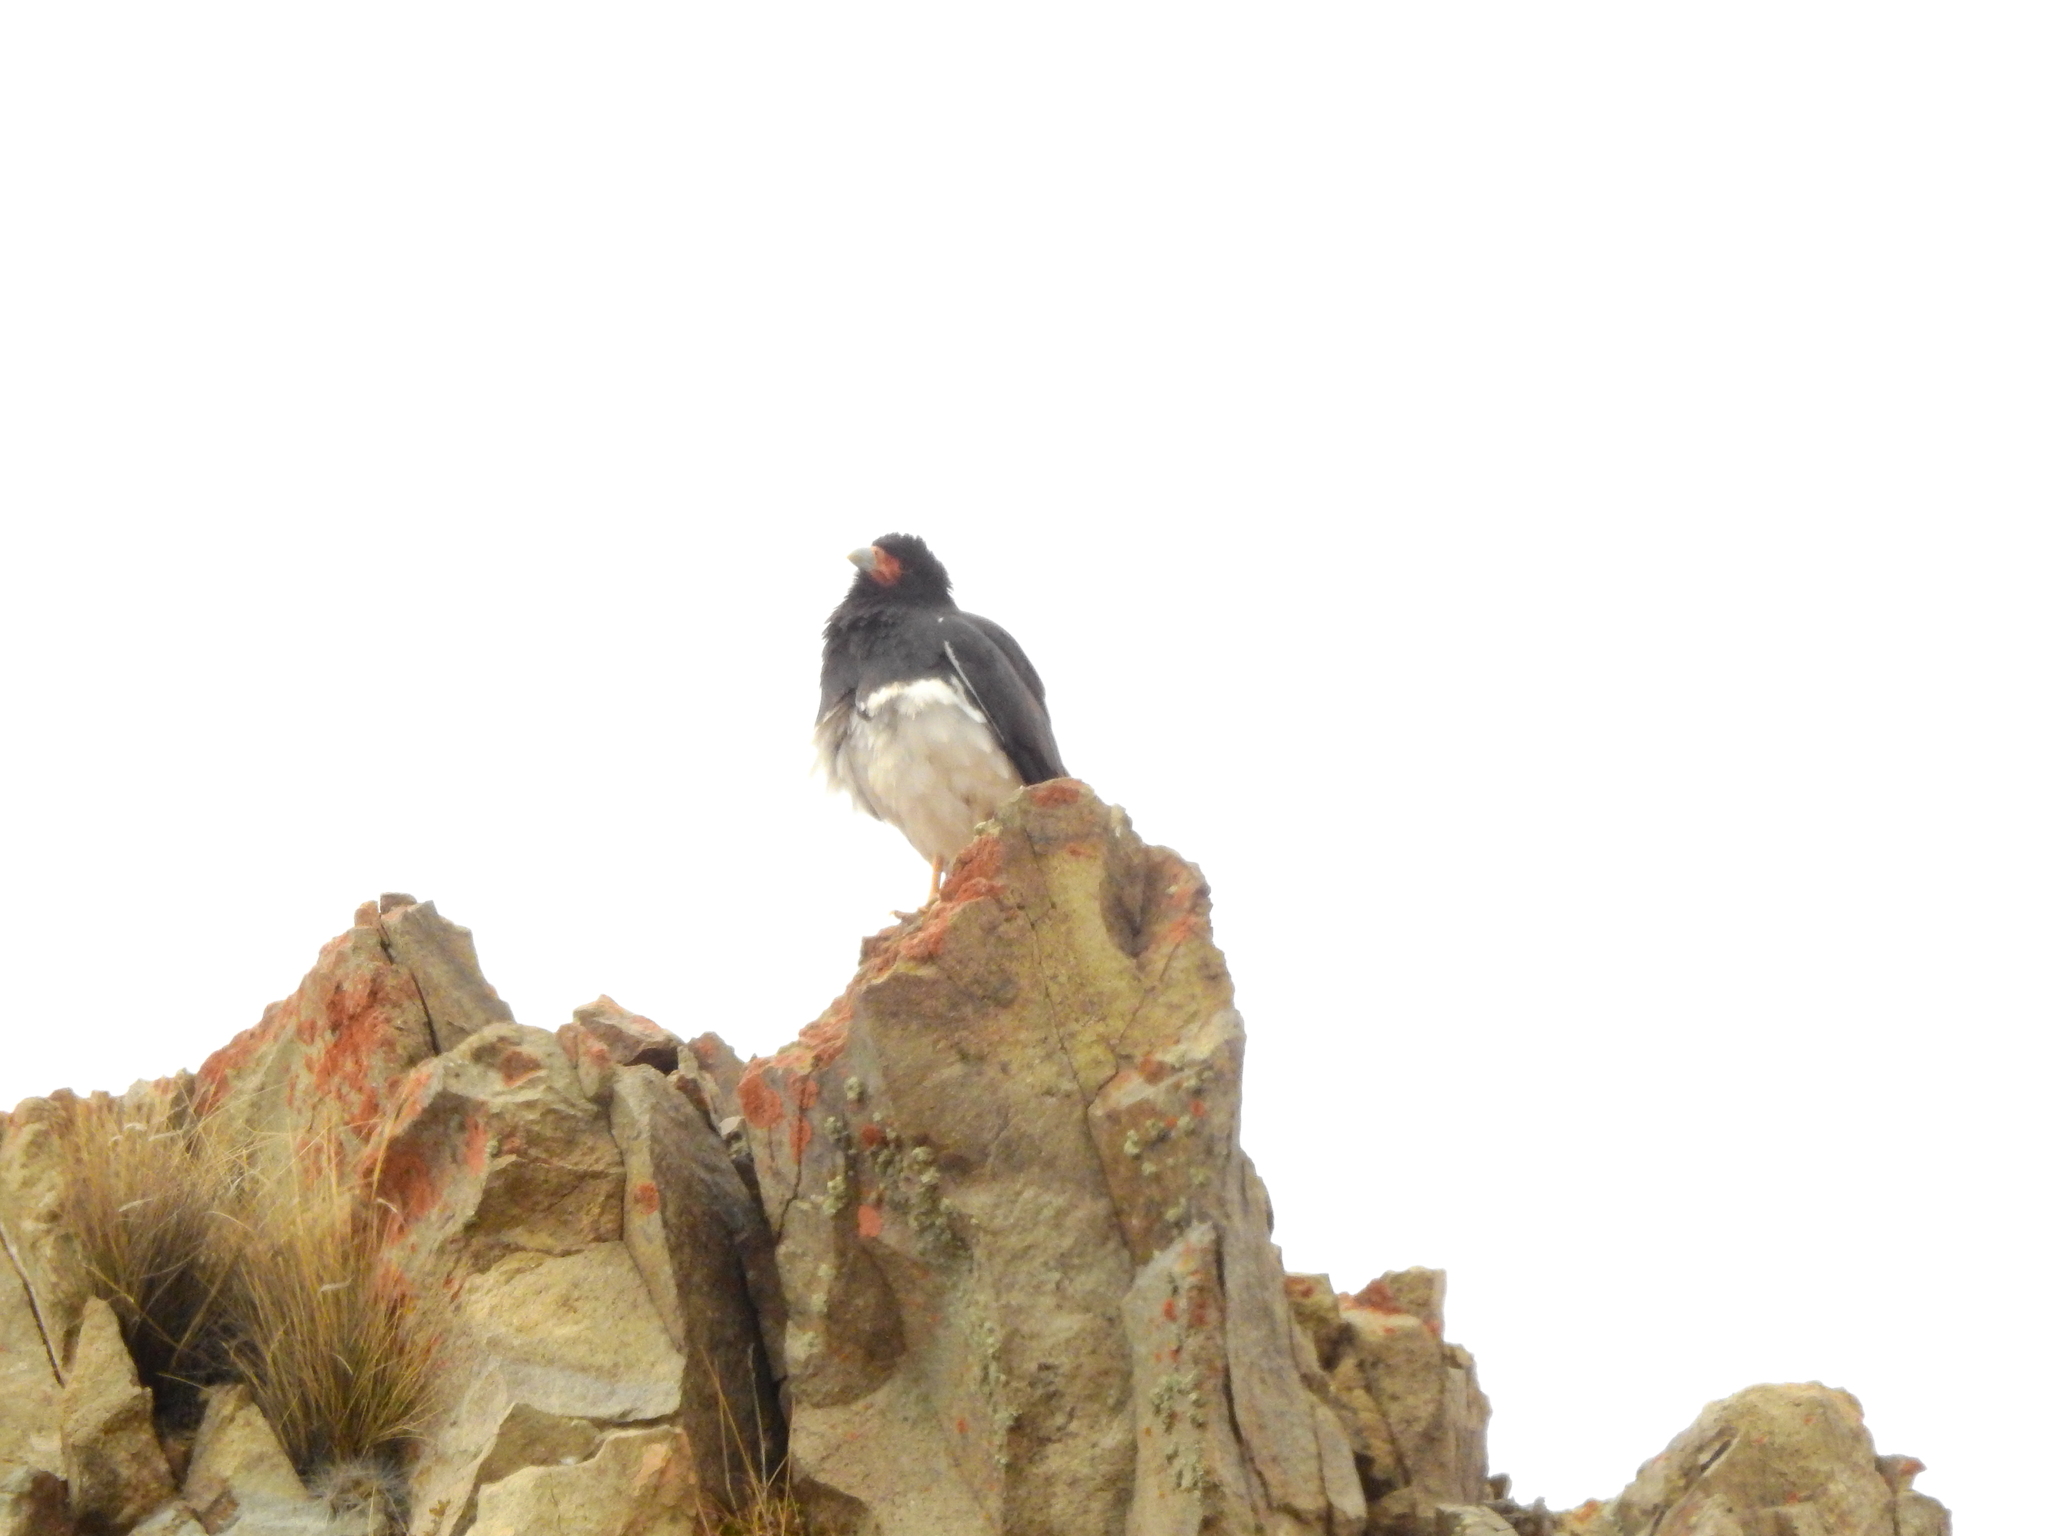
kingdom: Animalia
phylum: Chordata
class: Aves
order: Falconiformes
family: Falconidae
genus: Daptrius
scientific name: Daptrius
